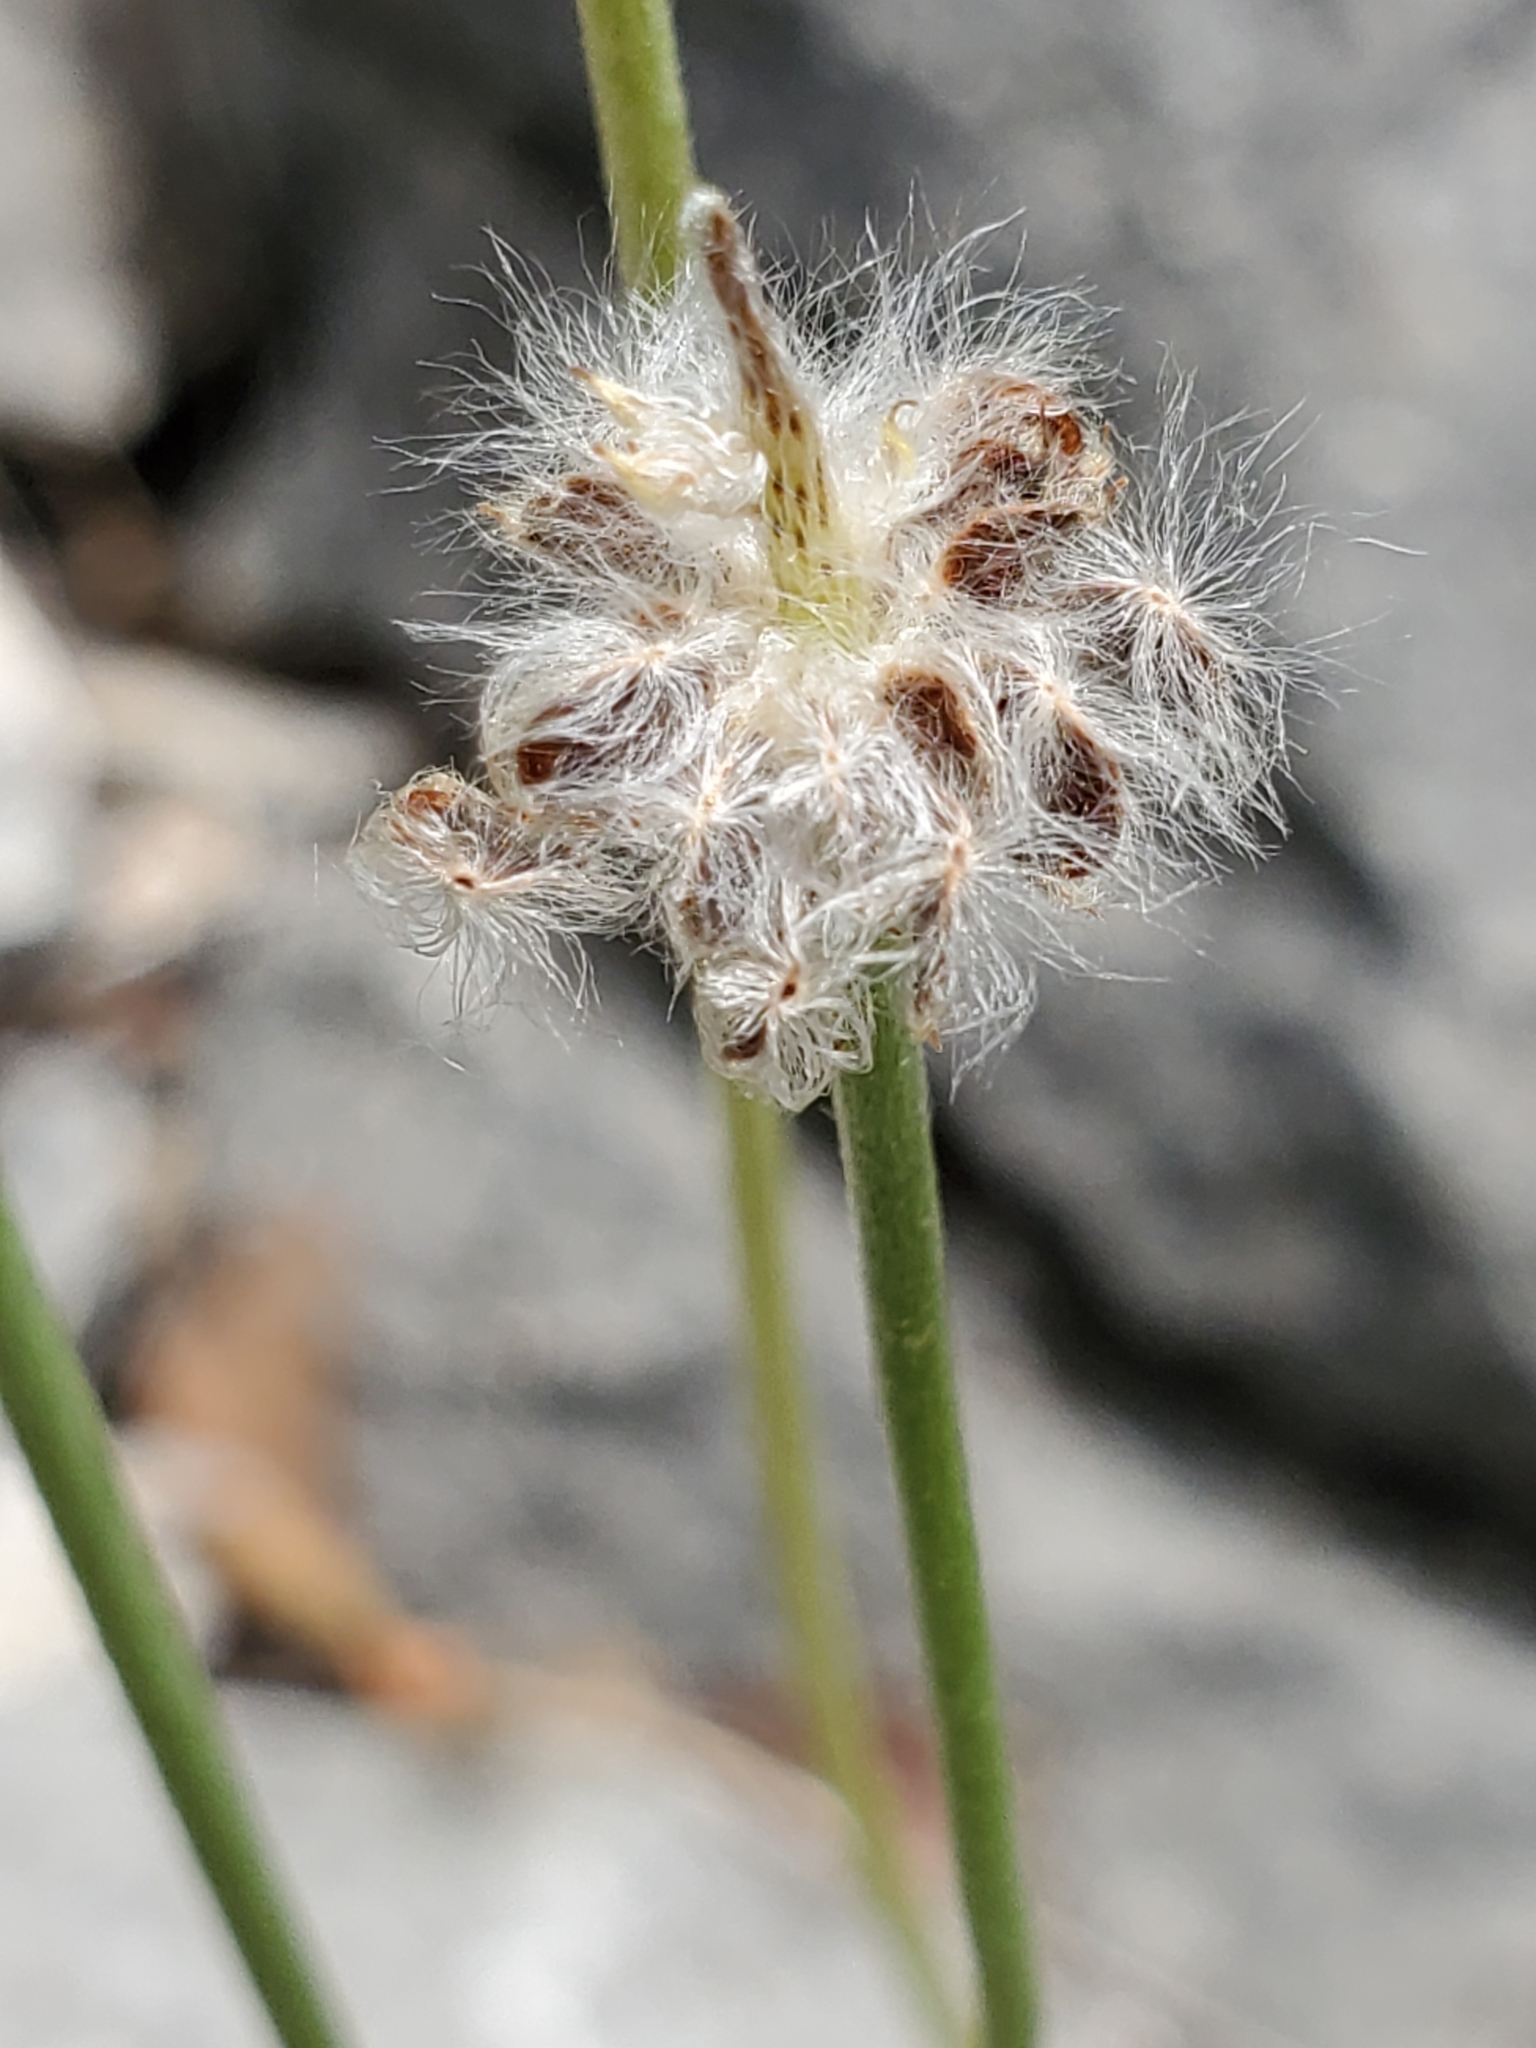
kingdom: Plantae
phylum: Tracheophyta
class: Magnoliopsida
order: Ranunculales
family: Ranunculaceae
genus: Anemone
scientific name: Anemone edwardsiana
